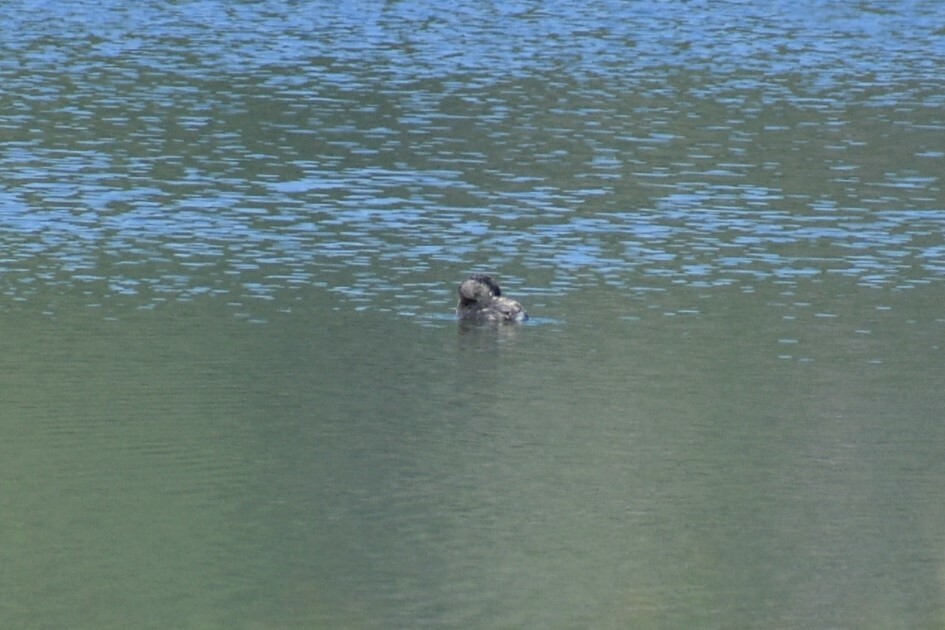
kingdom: Animalia
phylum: Chordata
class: Aves
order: Podicipediformes
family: Podicipedidae
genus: Podilymbus
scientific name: Podilymbus podiceps
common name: Pied-billed grebe
